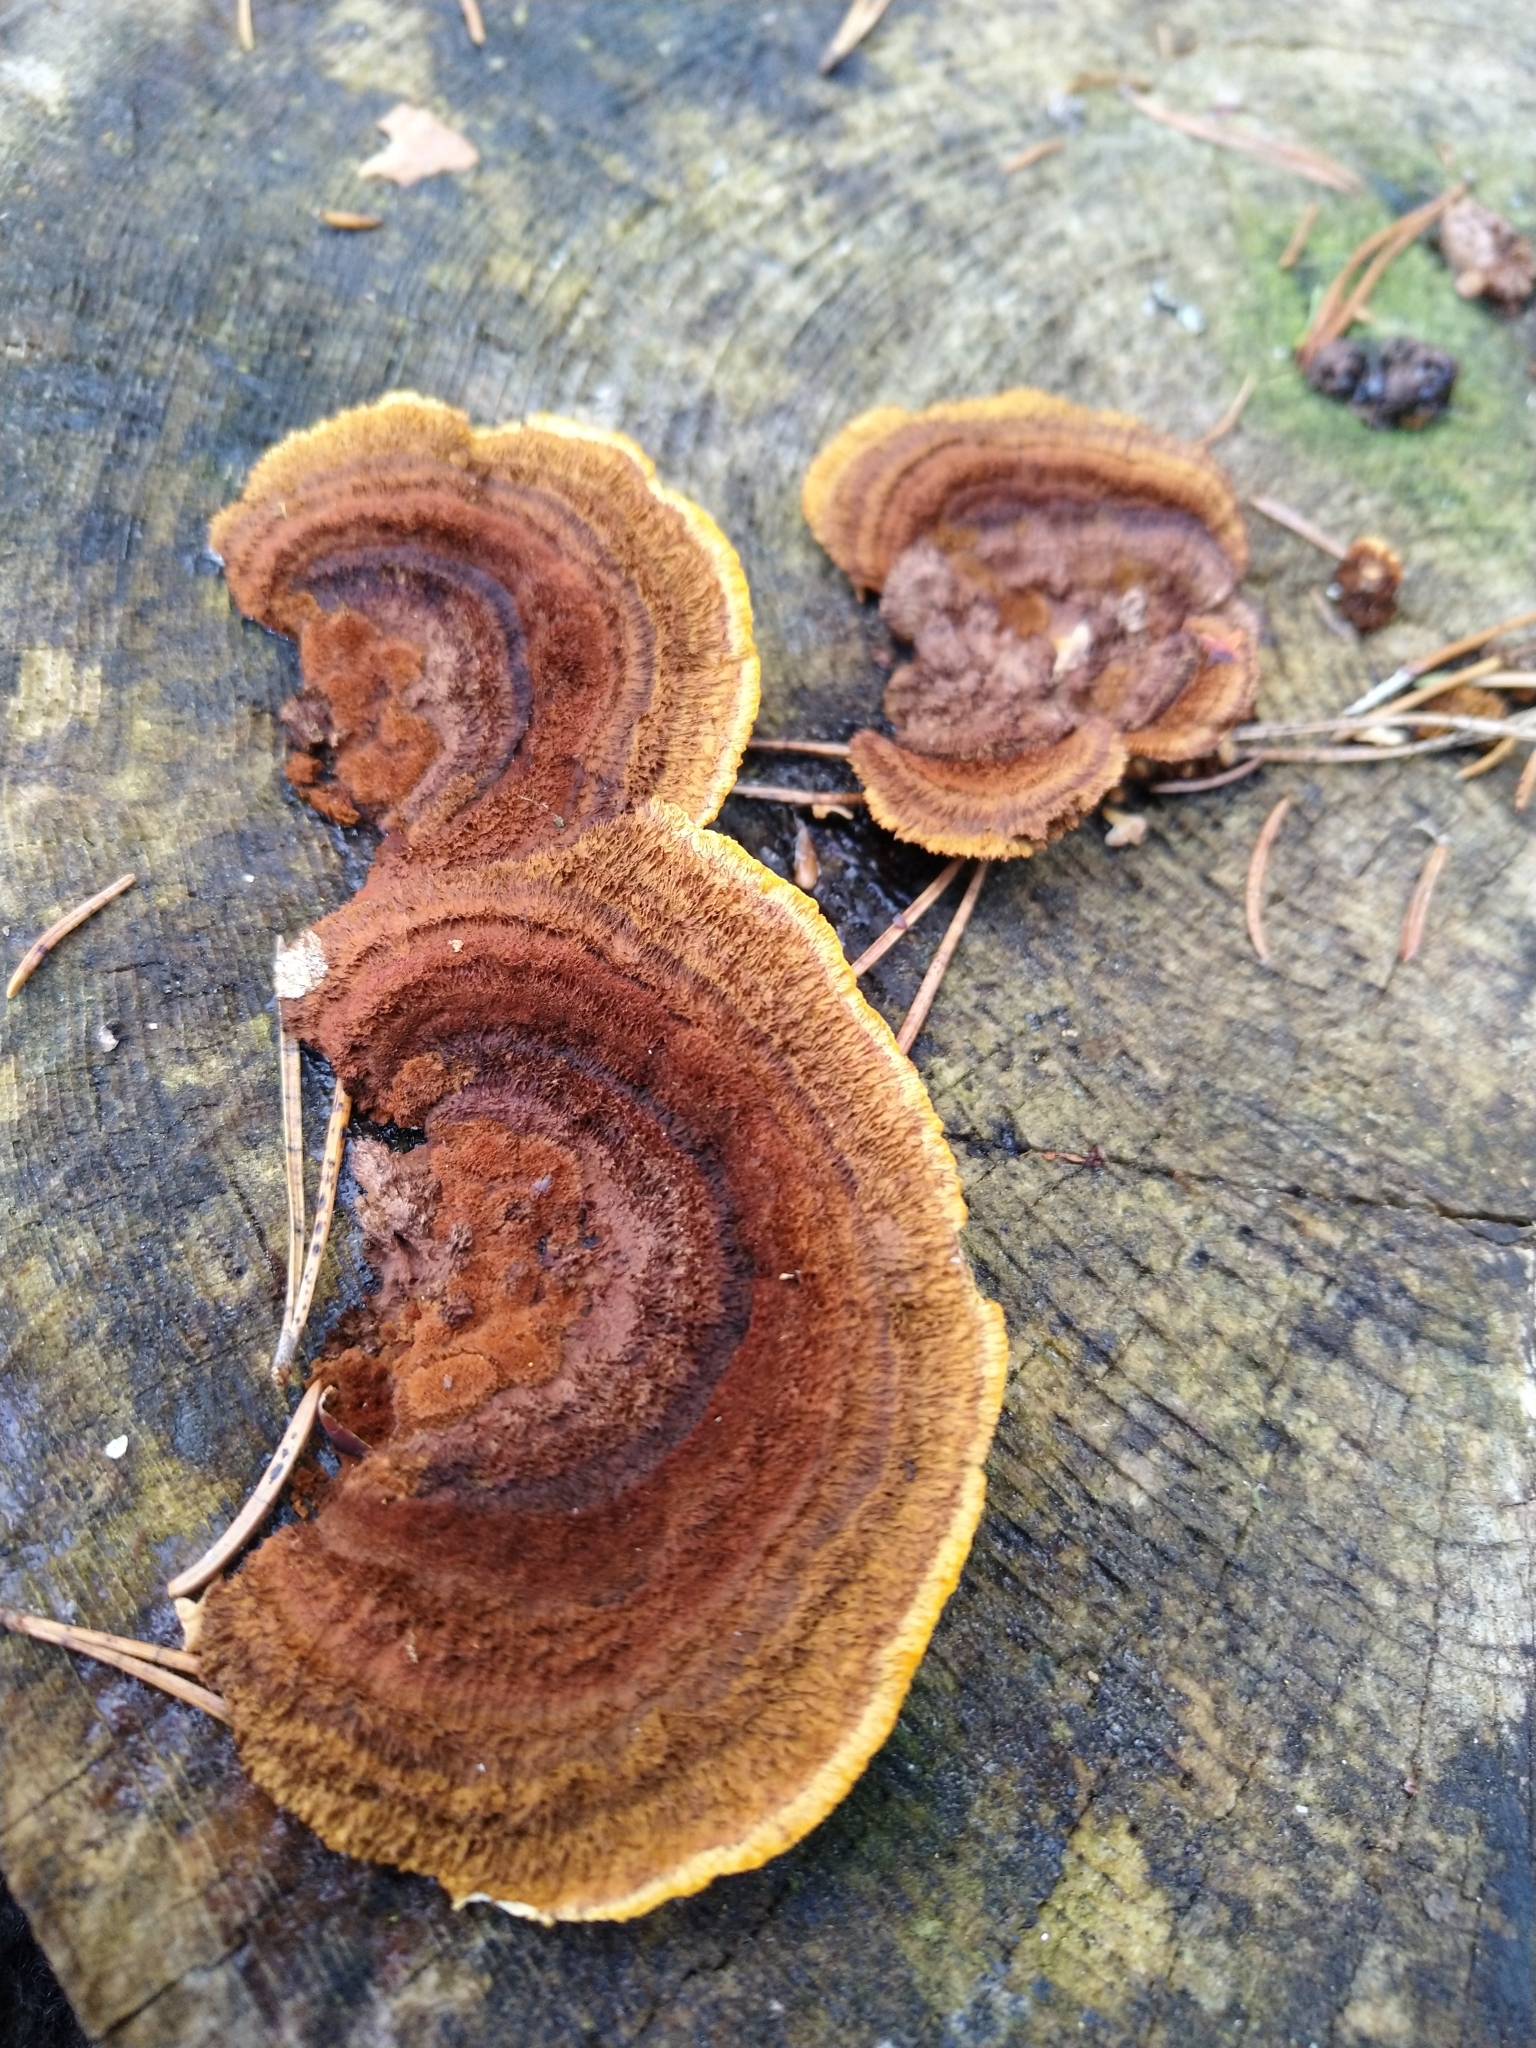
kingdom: Fungi
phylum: Basidiomycota
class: Agaricomycetes
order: Gloeophyllales
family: Gloeophyllaceae
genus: Gloeophyllum
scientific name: Gloeophyllum sepiarium
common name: Conifer mazegill
